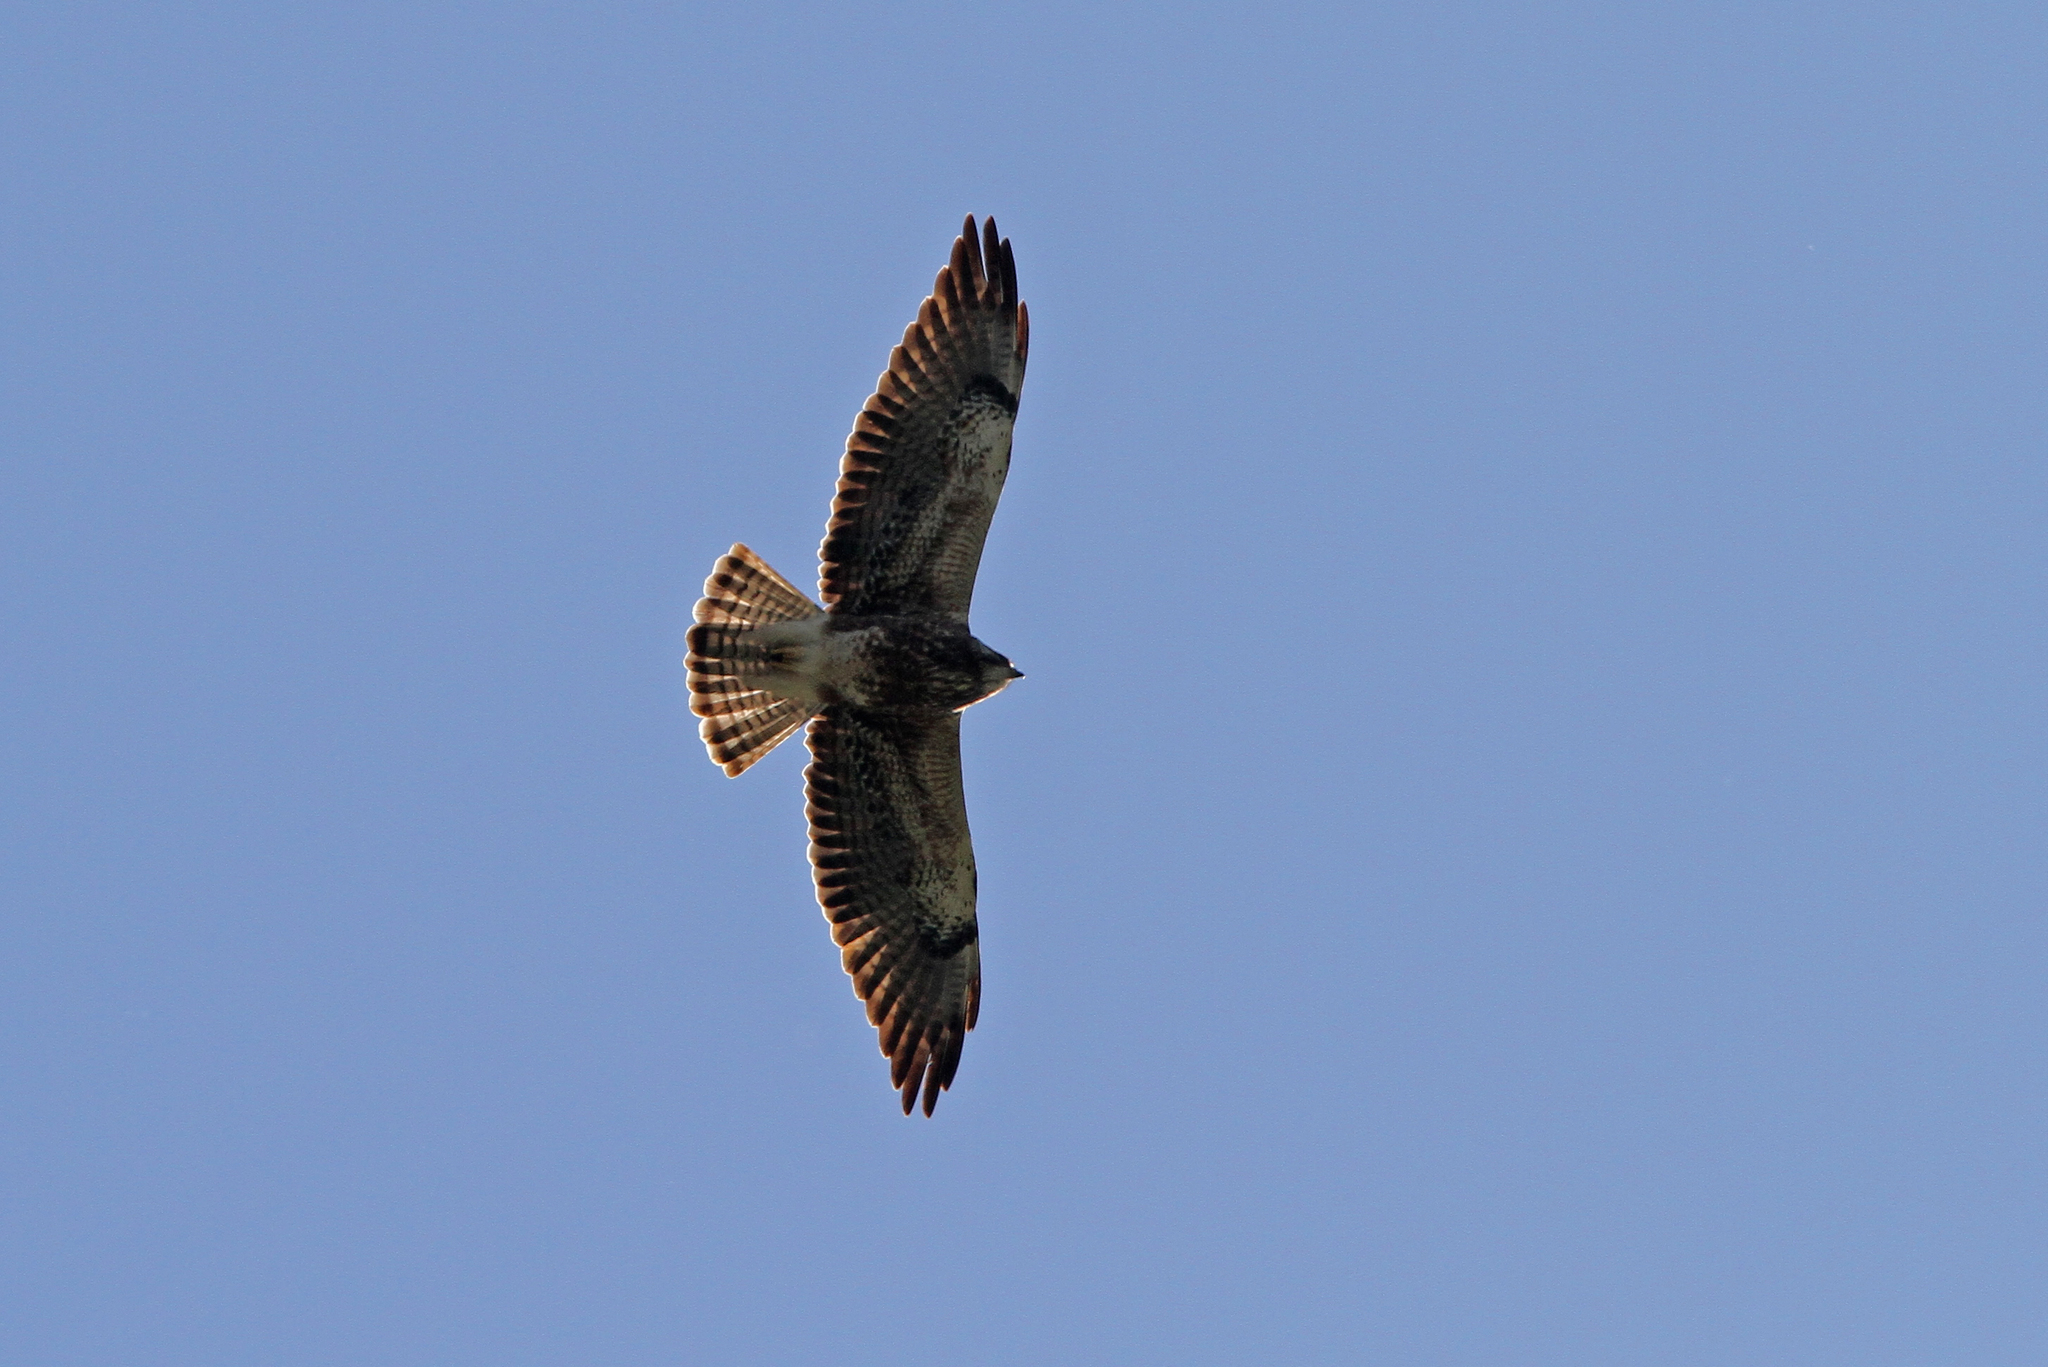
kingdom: Animalia
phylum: Chordata
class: Aves
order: Accipitriformes
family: Accipitridae
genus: Buteo
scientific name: Buteo swainsoni
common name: Swainson's hawk
